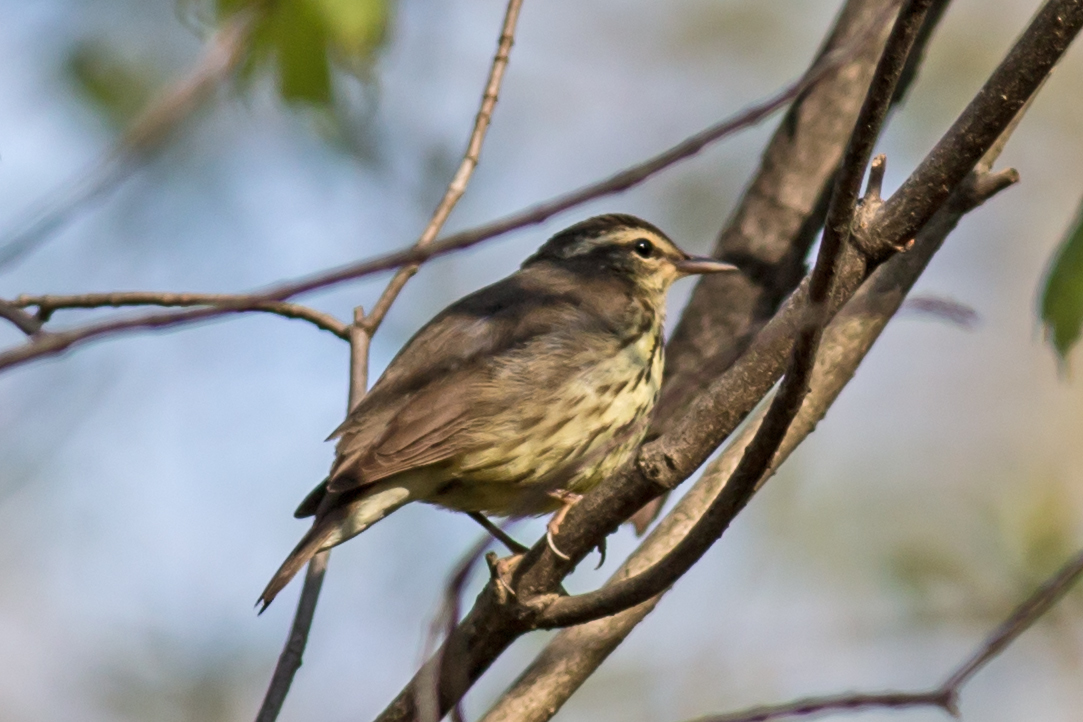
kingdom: Animalia
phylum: Chordata
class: Aves
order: Passeriformes
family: Parulidae
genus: Parkesia
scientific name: Parkesia noveboracensis
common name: Northern waterthrush
